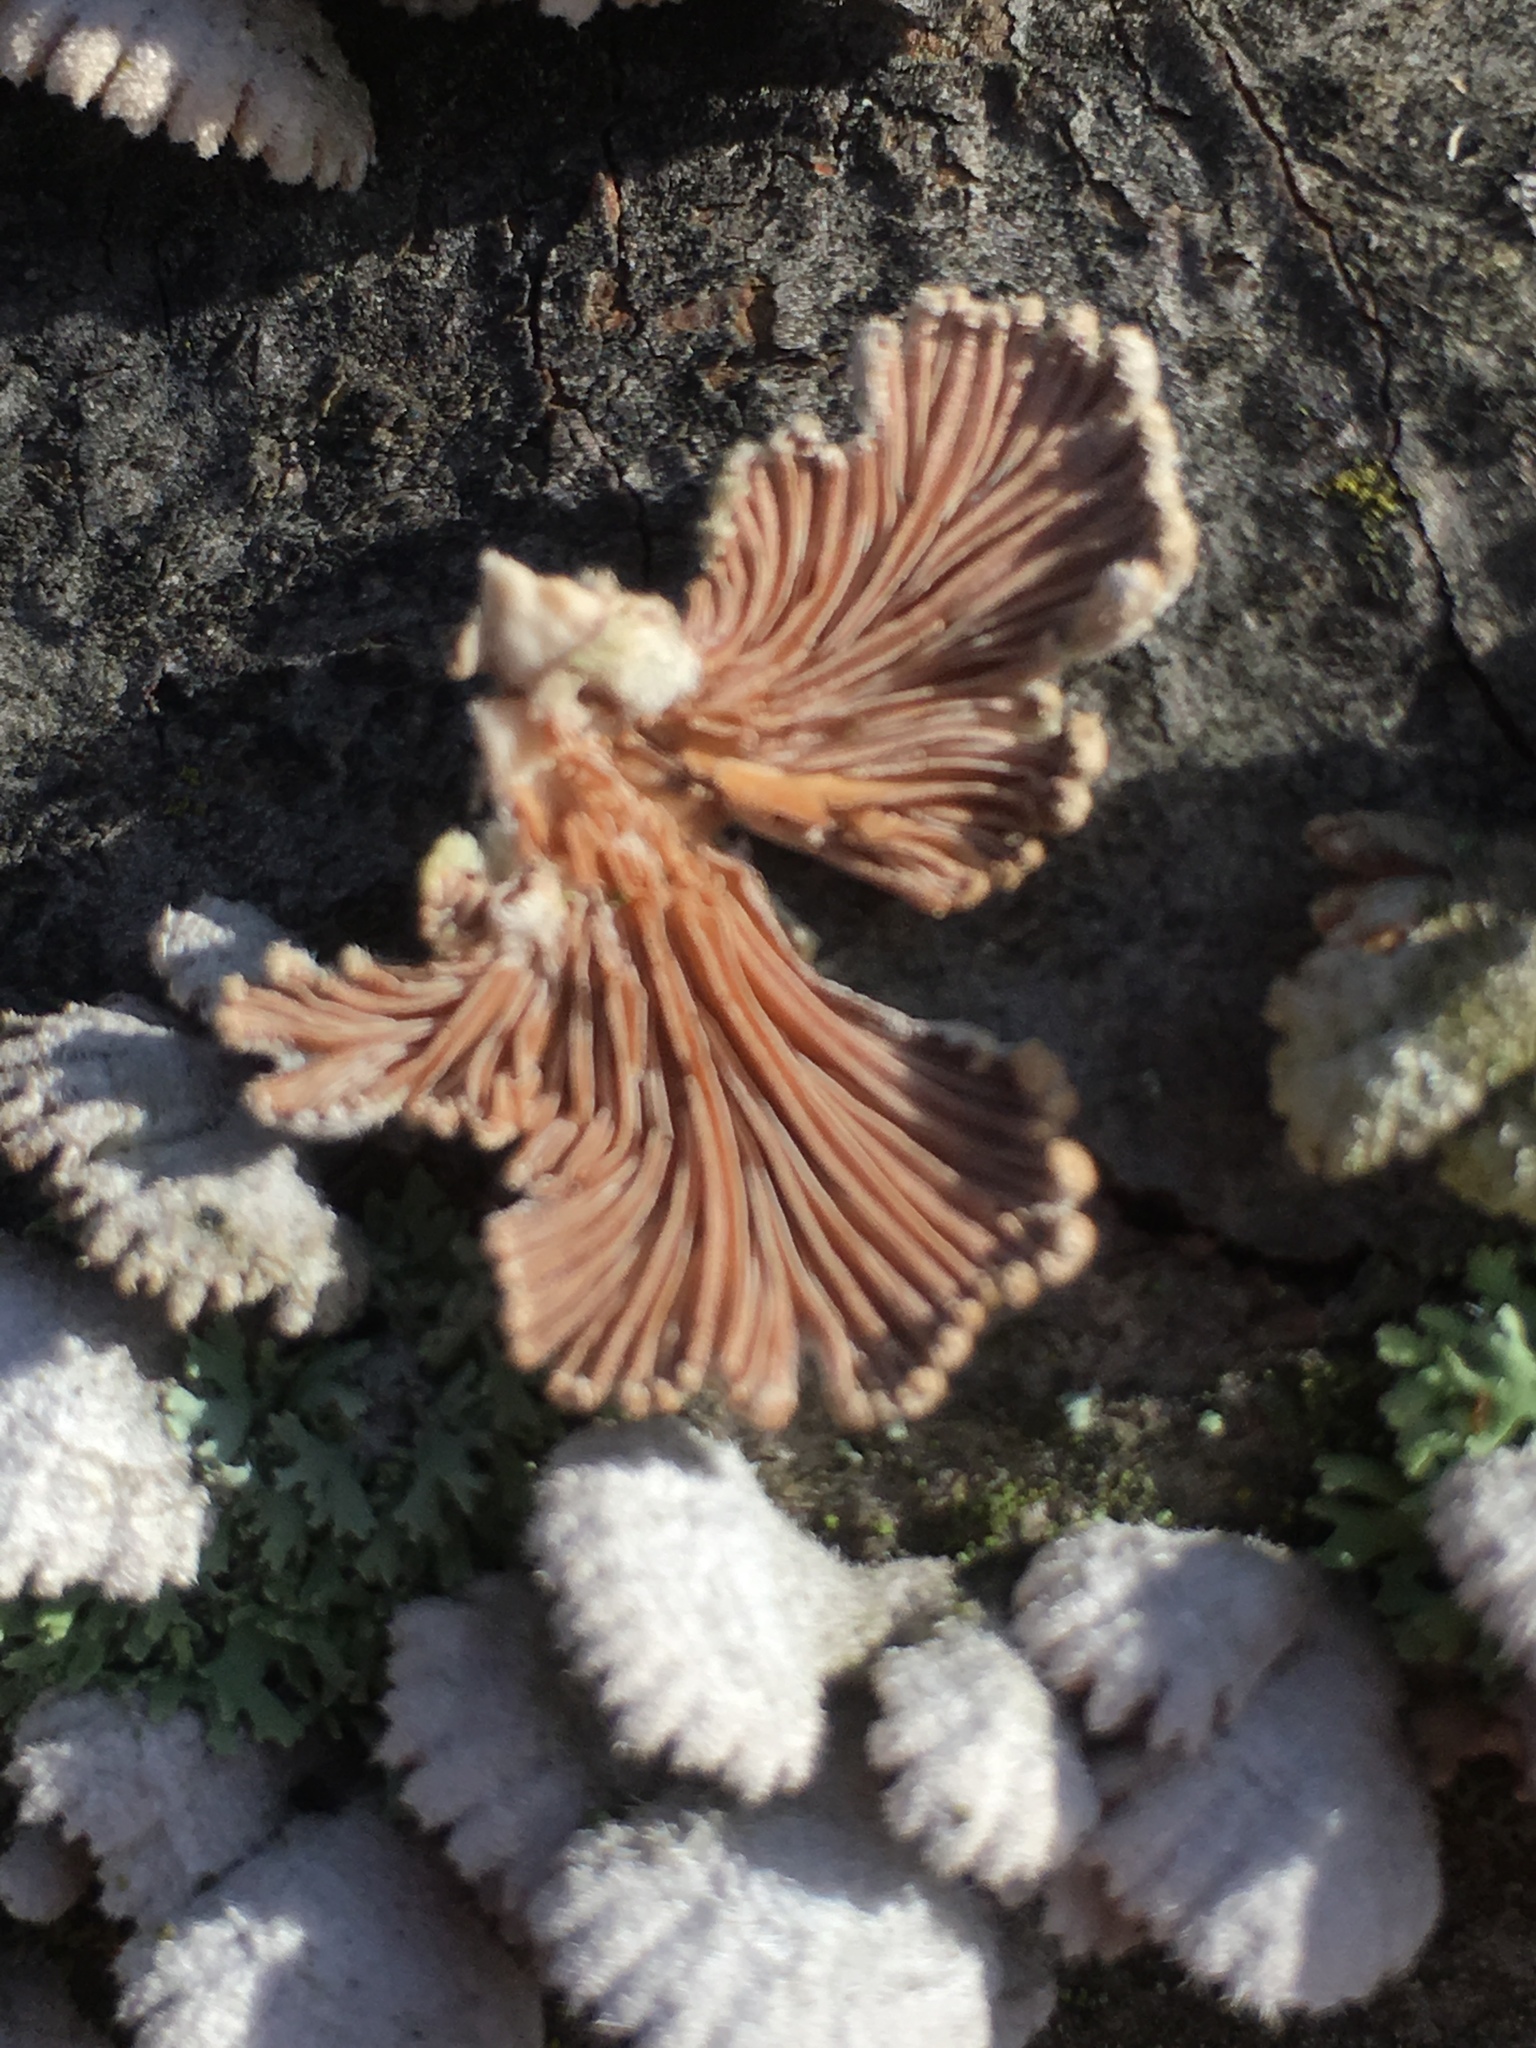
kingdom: Fungi
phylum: Basidiomycota
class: Agaricomycetes
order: Agaricales
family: Schizophyllaceae
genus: Schizophyllum
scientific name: Schizophyllum commune
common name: Common porecrust
